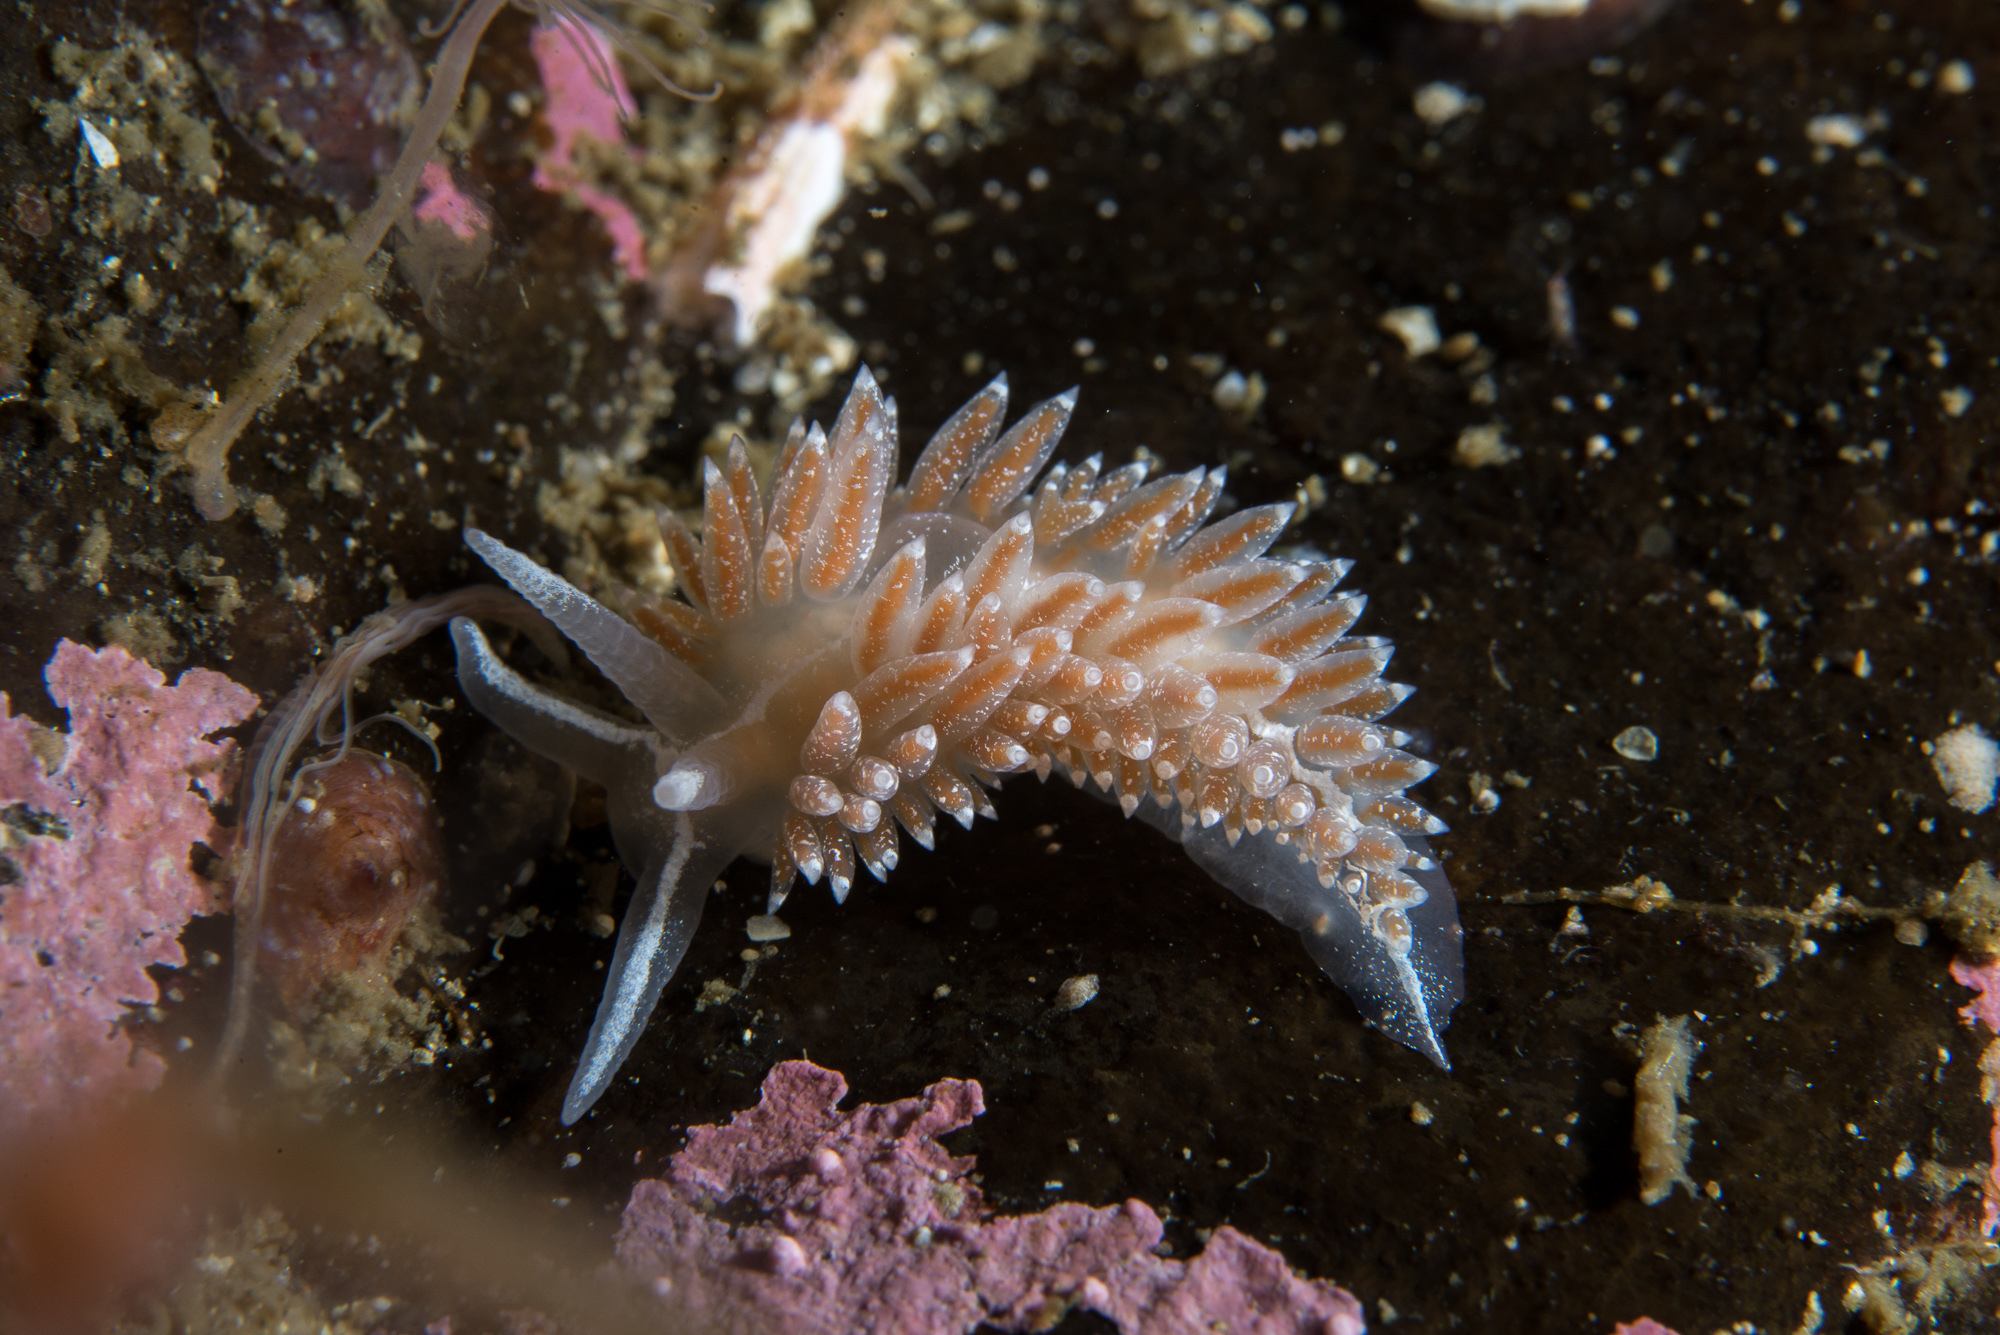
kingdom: Animalia
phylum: Mollusca
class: Gastropoda
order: Nudibranchia
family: Coryphellidae
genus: Coryphella
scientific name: Coryphella orjani
